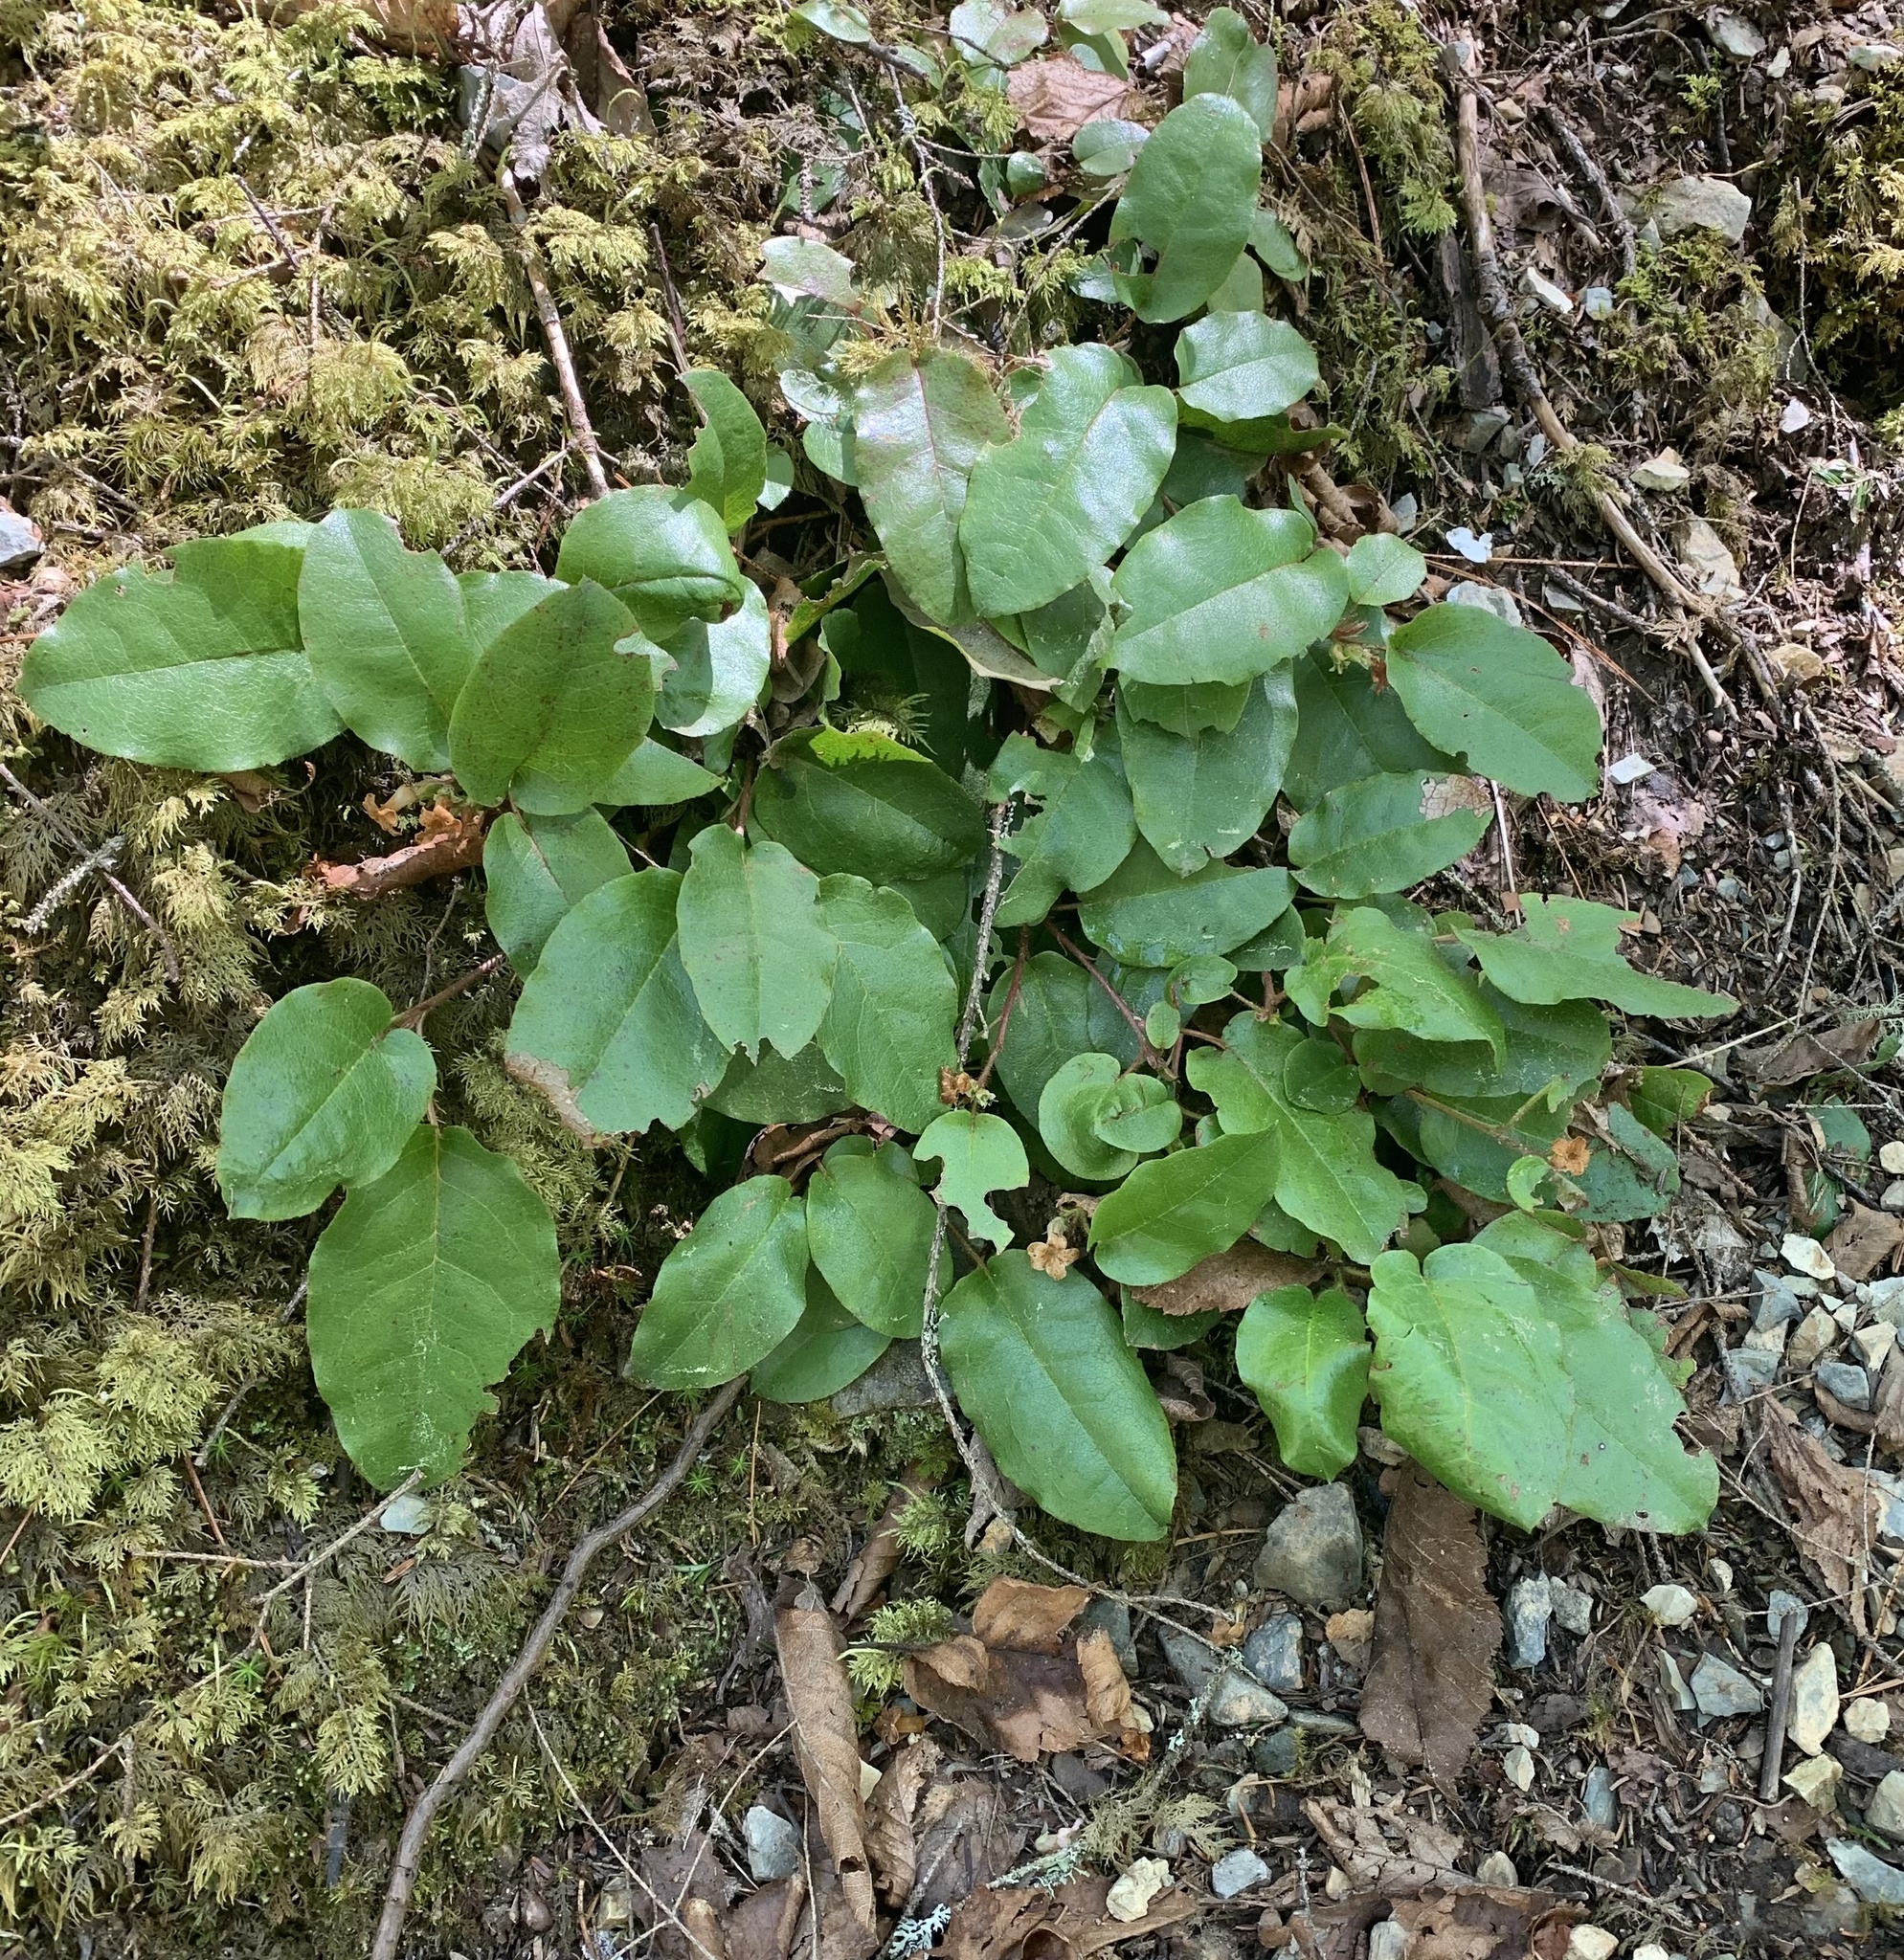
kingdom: Plantae
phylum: Tracheophyta
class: Magnoliopsida
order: Ericales
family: Ericaceae
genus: Epigaea
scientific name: Epigaea repens
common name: Gravelroot
